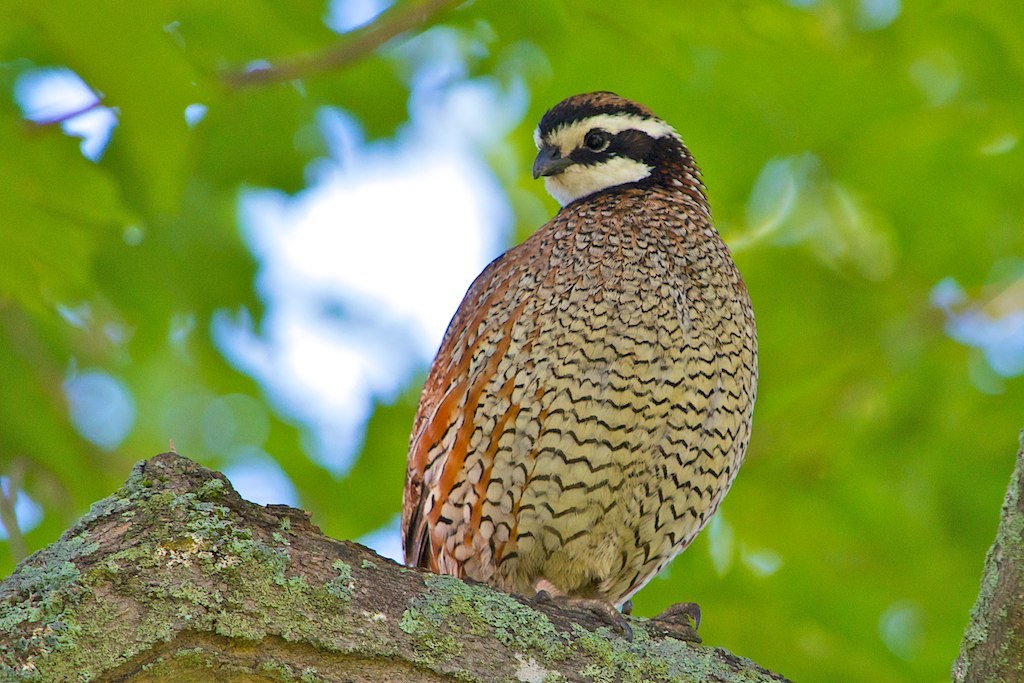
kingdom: Animalia
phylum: Chordata
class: Aves
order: Galliformes
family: Odontophoridae
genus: Colinus
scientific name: Colinus virginianus
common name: Northern bobwhite
